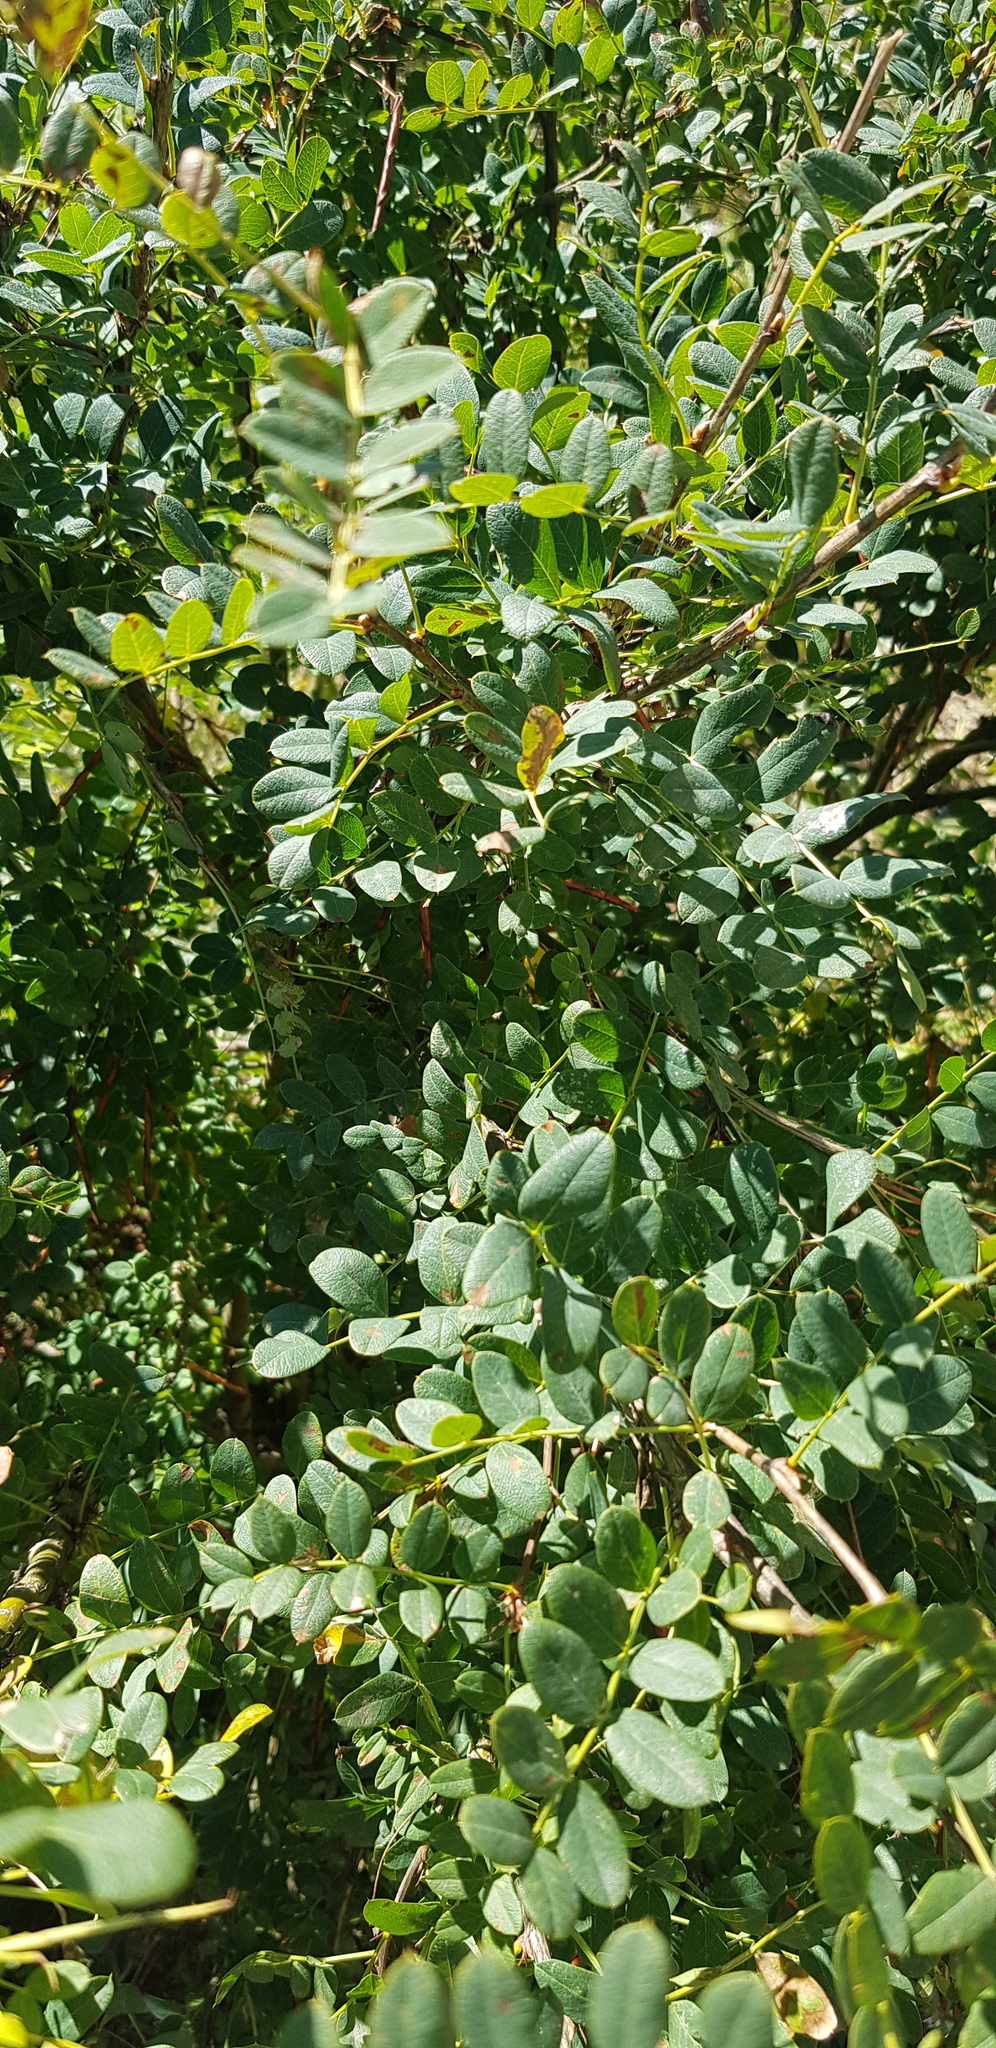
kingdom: Plantae
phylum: Tracheophyta
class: Magnoliopsida
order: Fabales
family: Fabaceae
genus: Caragana
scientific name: Caragana arborescens
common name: Siberian peashrub
